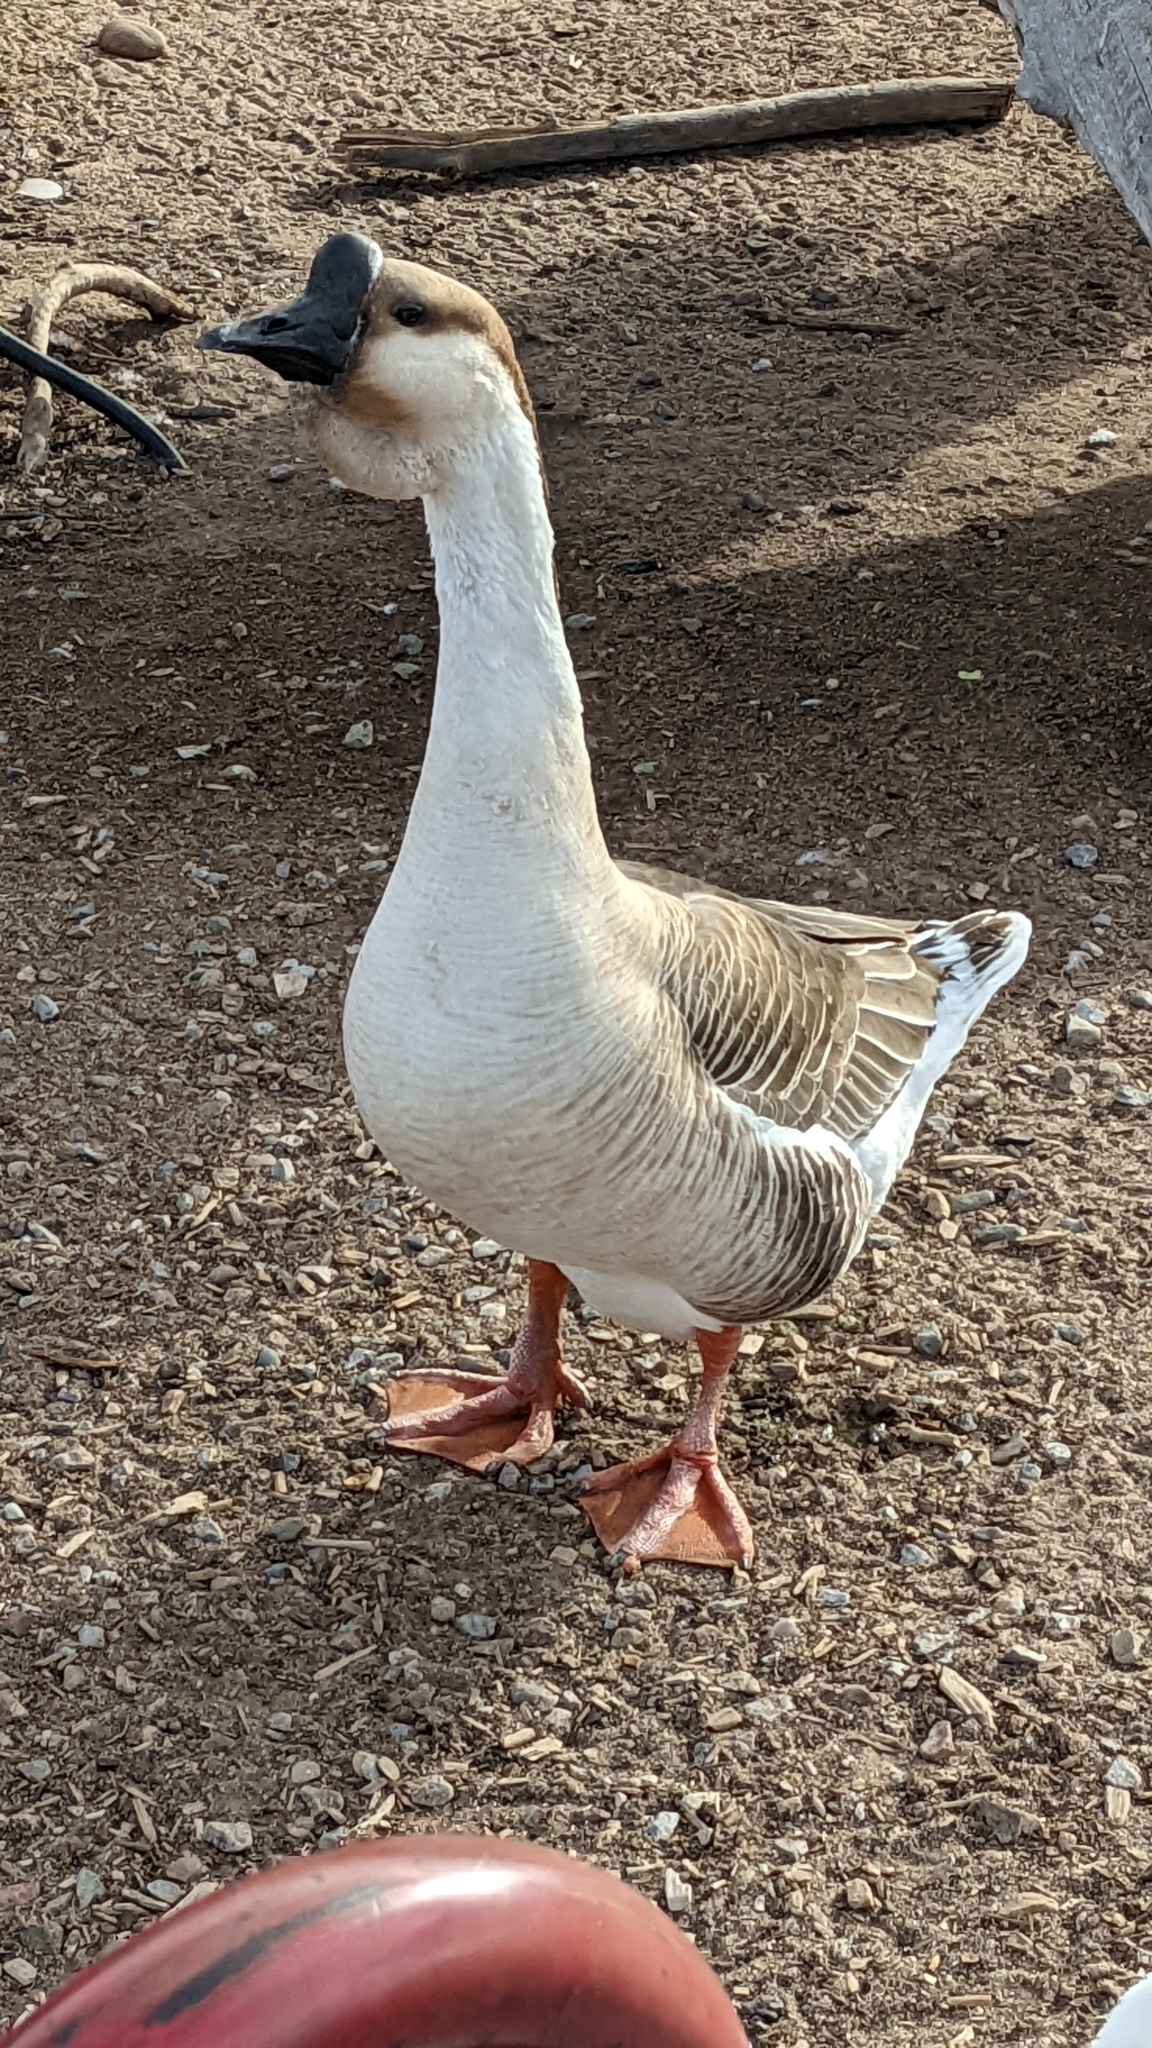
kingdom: Animalia
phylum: Chordata
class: Aves
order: Anseriformes
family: Anatidae
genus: Anser
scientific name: Anser cygnoides
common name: Swan goose
